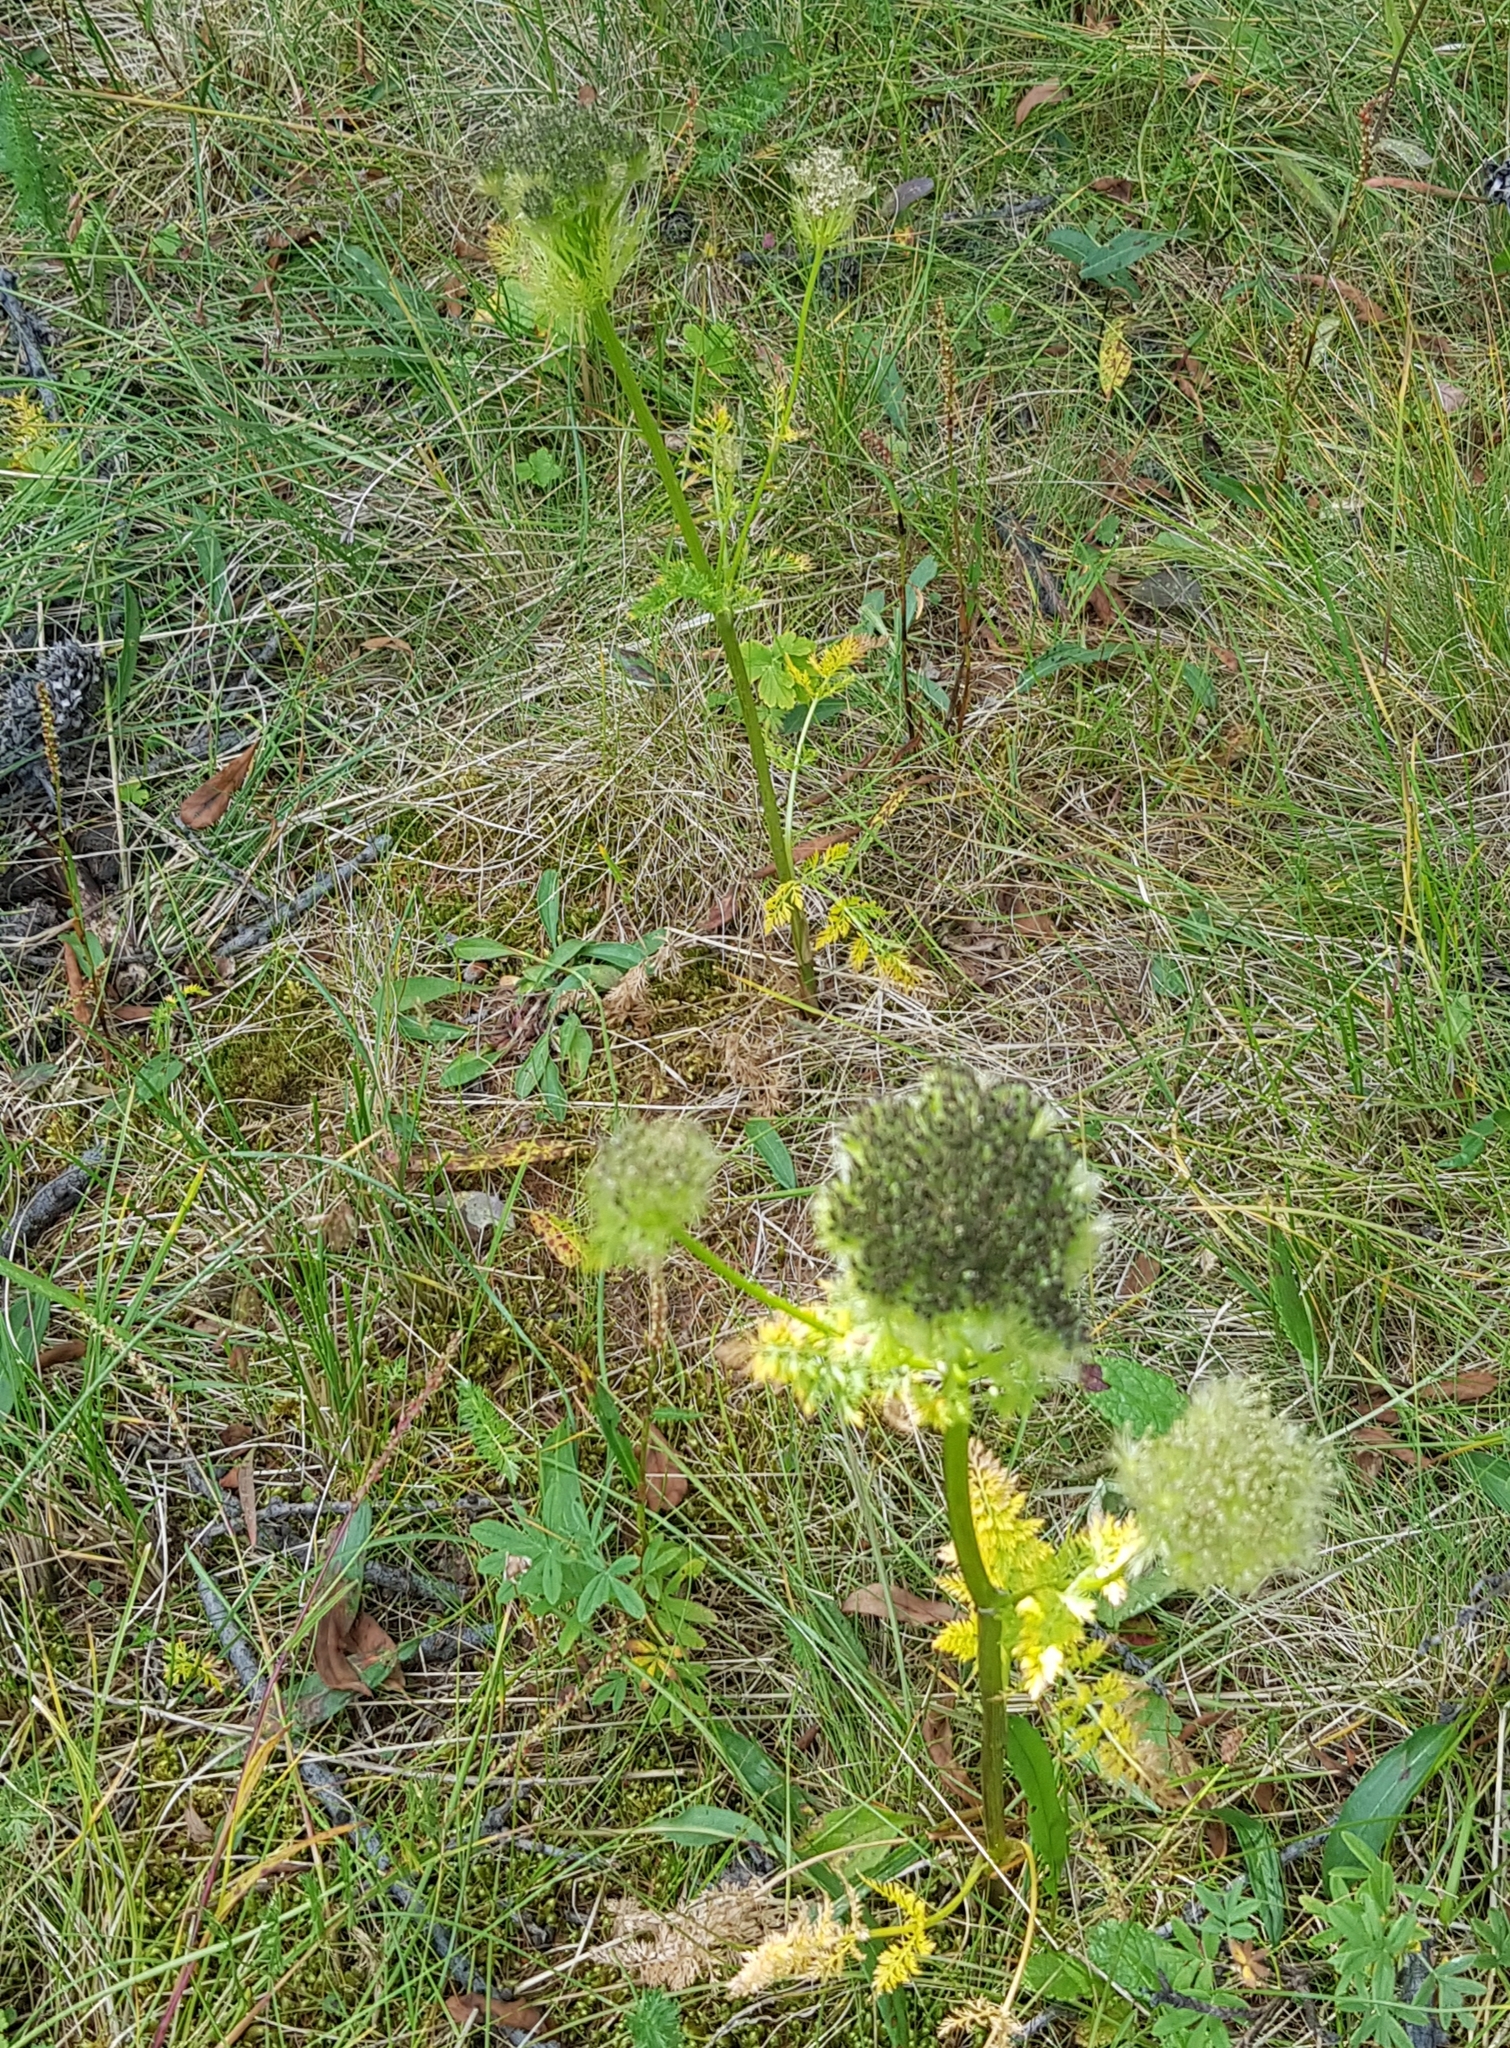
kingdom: Plantae
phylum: Tracheophyta
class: Magnoliopsida
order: Apiales
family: Apiaceae
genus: Schulzia
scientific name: Schulzia crinita
